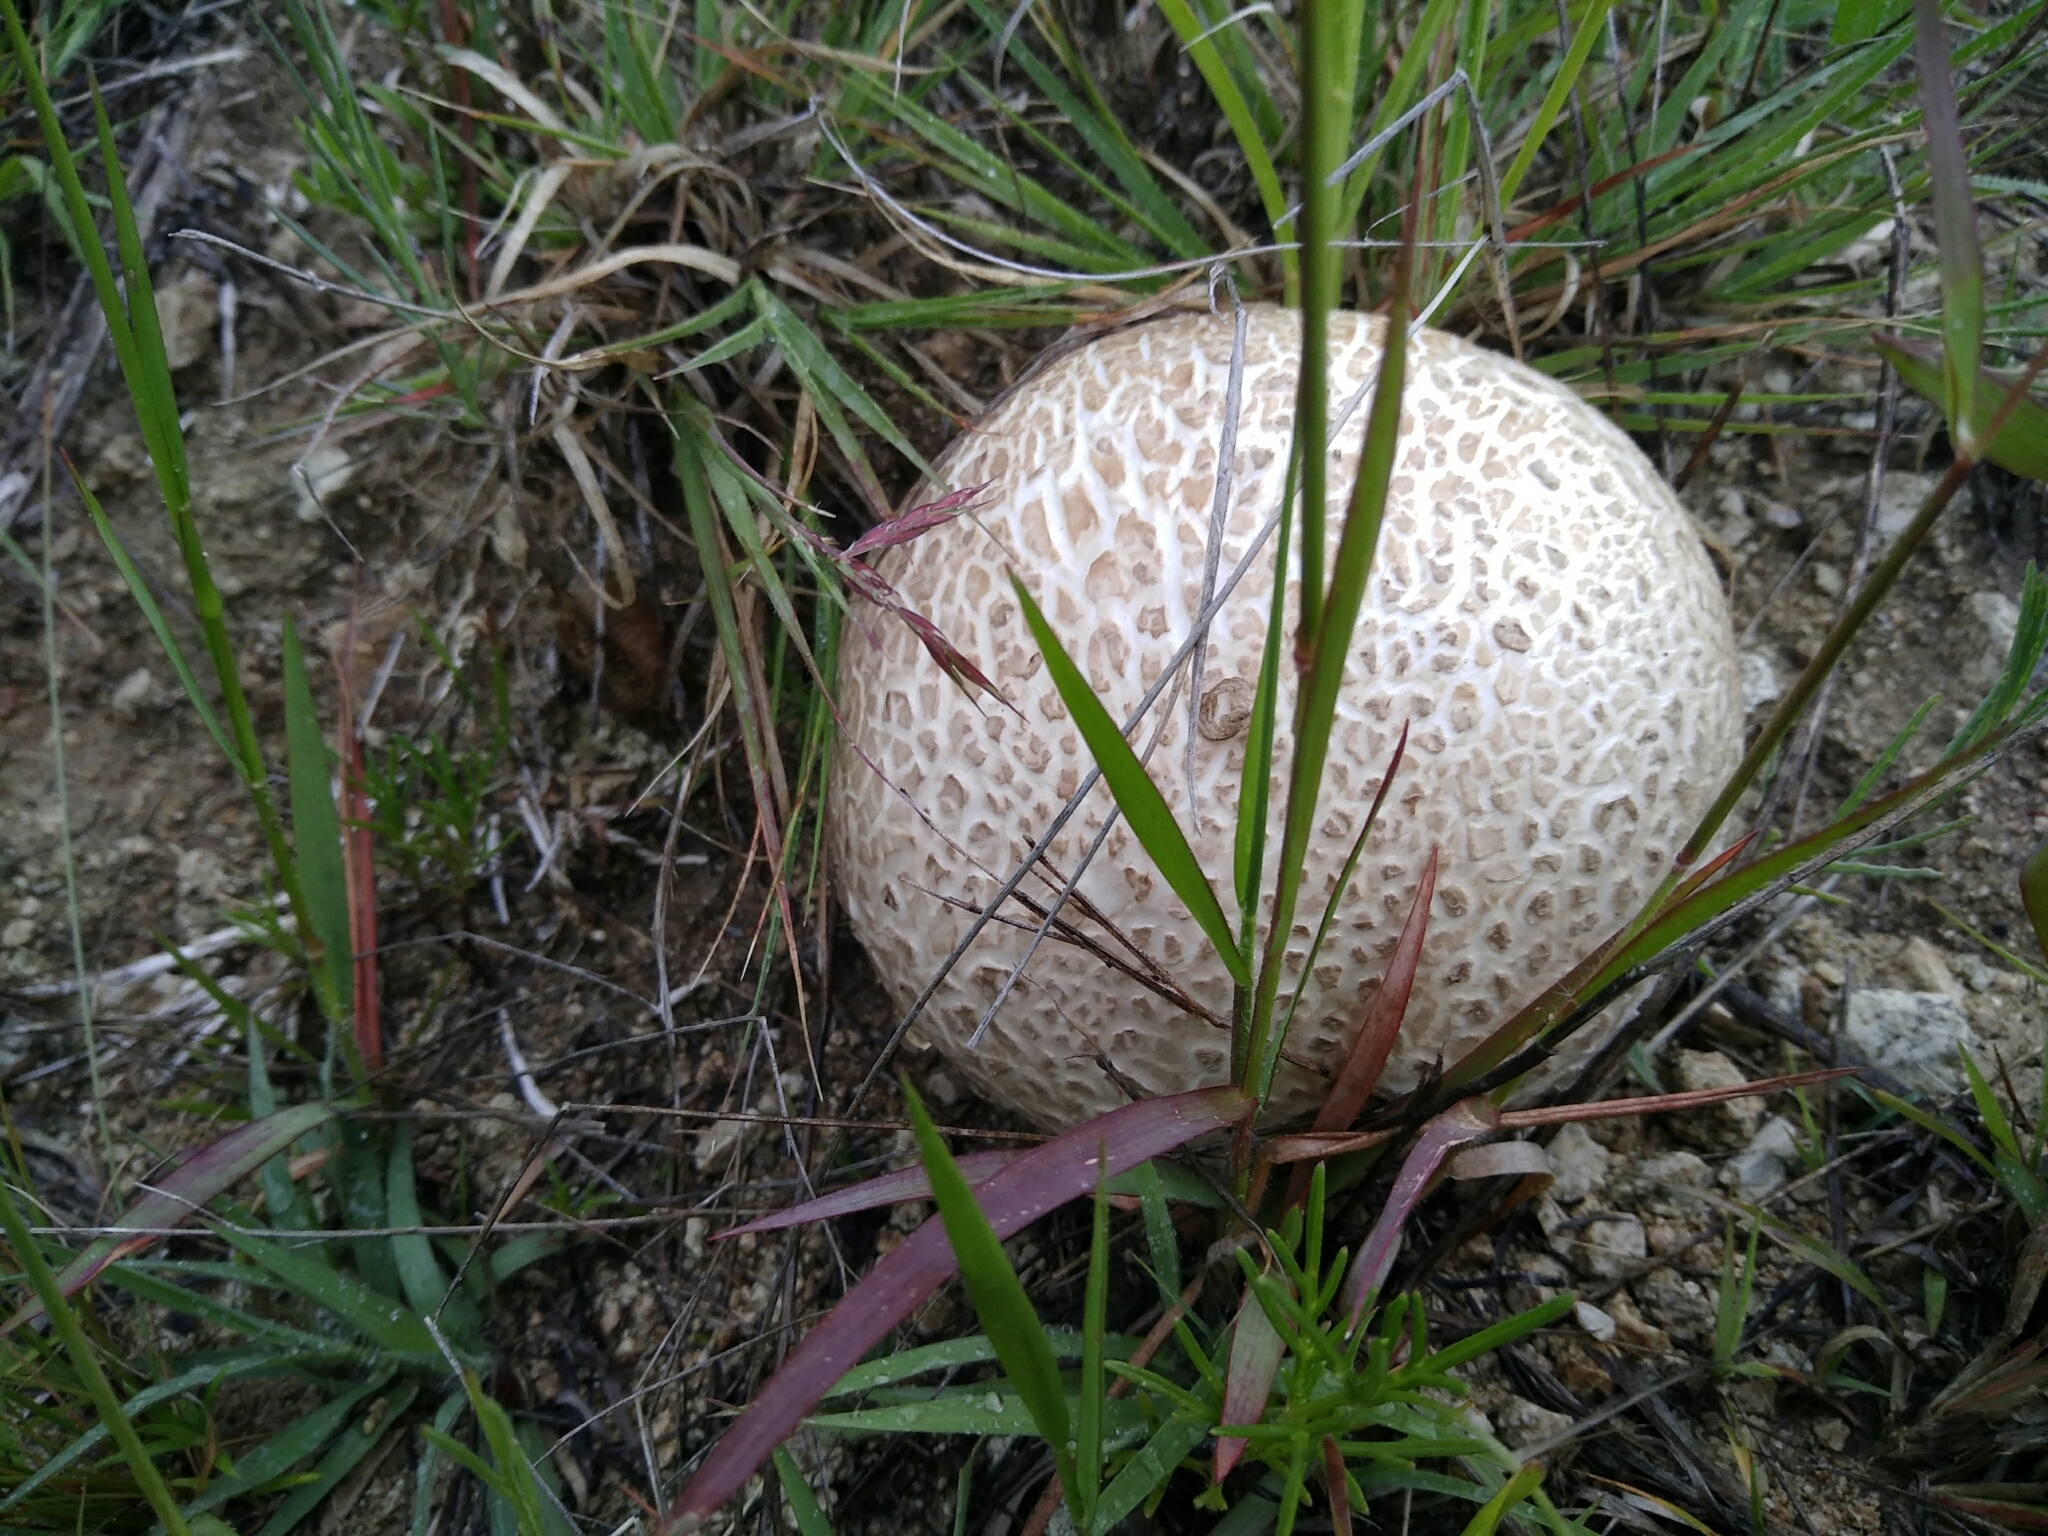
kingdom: Fungi
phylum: Basidiomycota
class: Agaricomycetes
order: Boletales
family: Sclerodermataceae
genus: Scleroderma
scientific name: Scleroderma citrinum
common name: Common earthball
